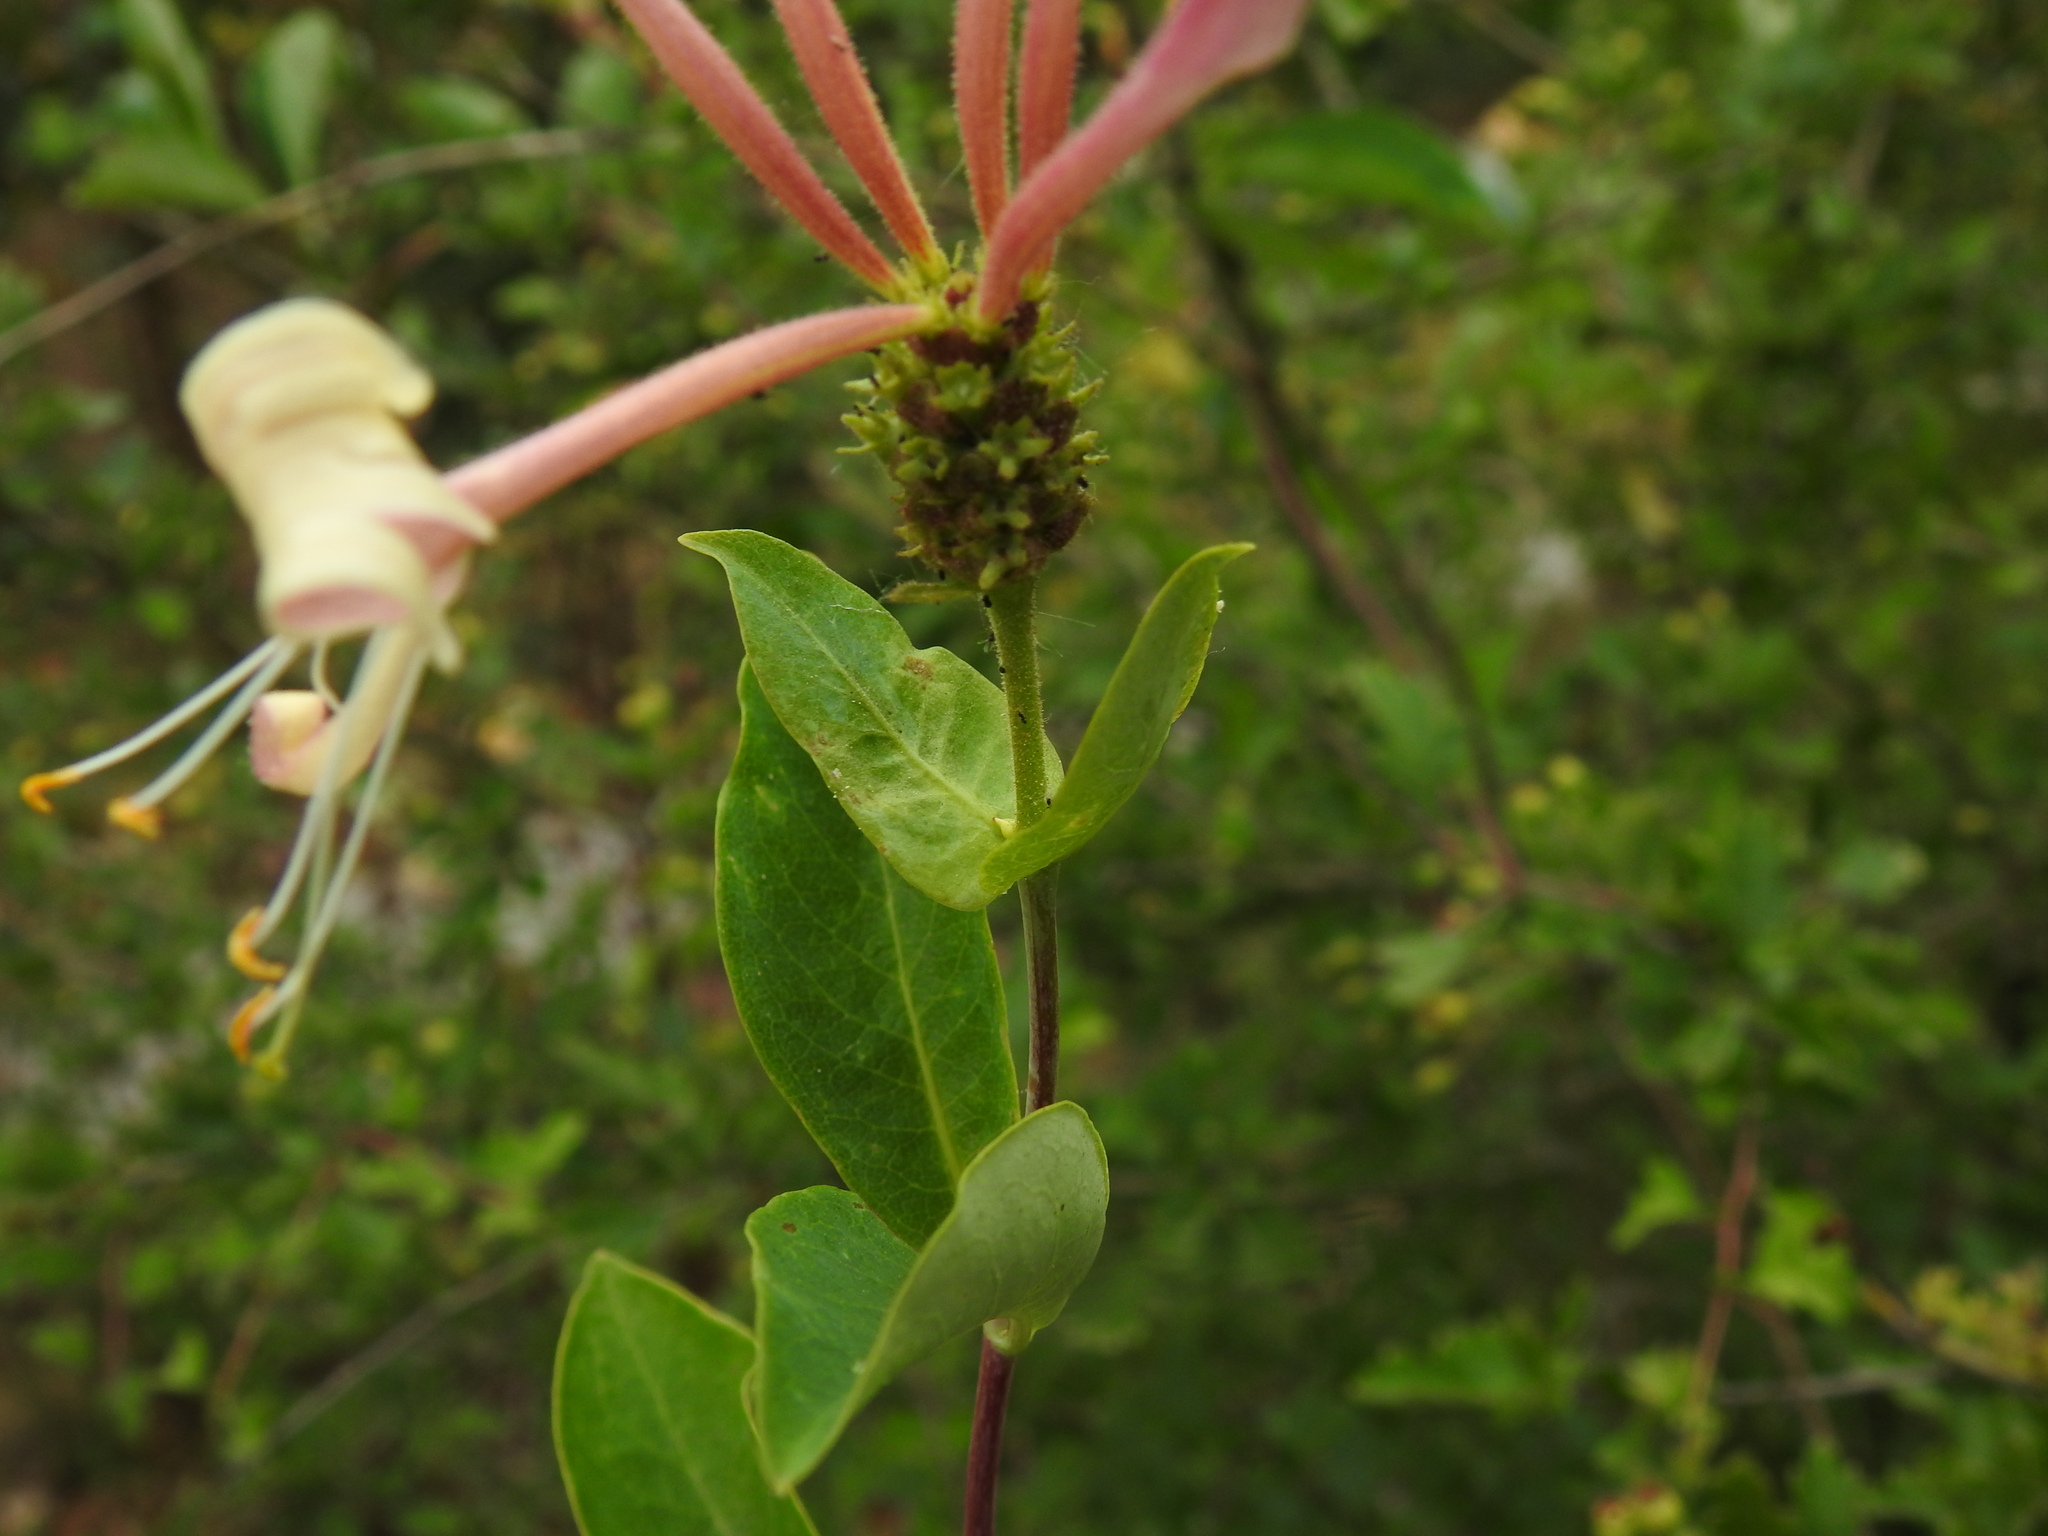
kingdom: Plantae
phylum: Tracheophyta
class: Magnoliopsida
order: Dipsacales
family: Caprifoliaceae
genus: Lonicera
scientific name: Lonicera periclymenum
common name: European honeysuckle
